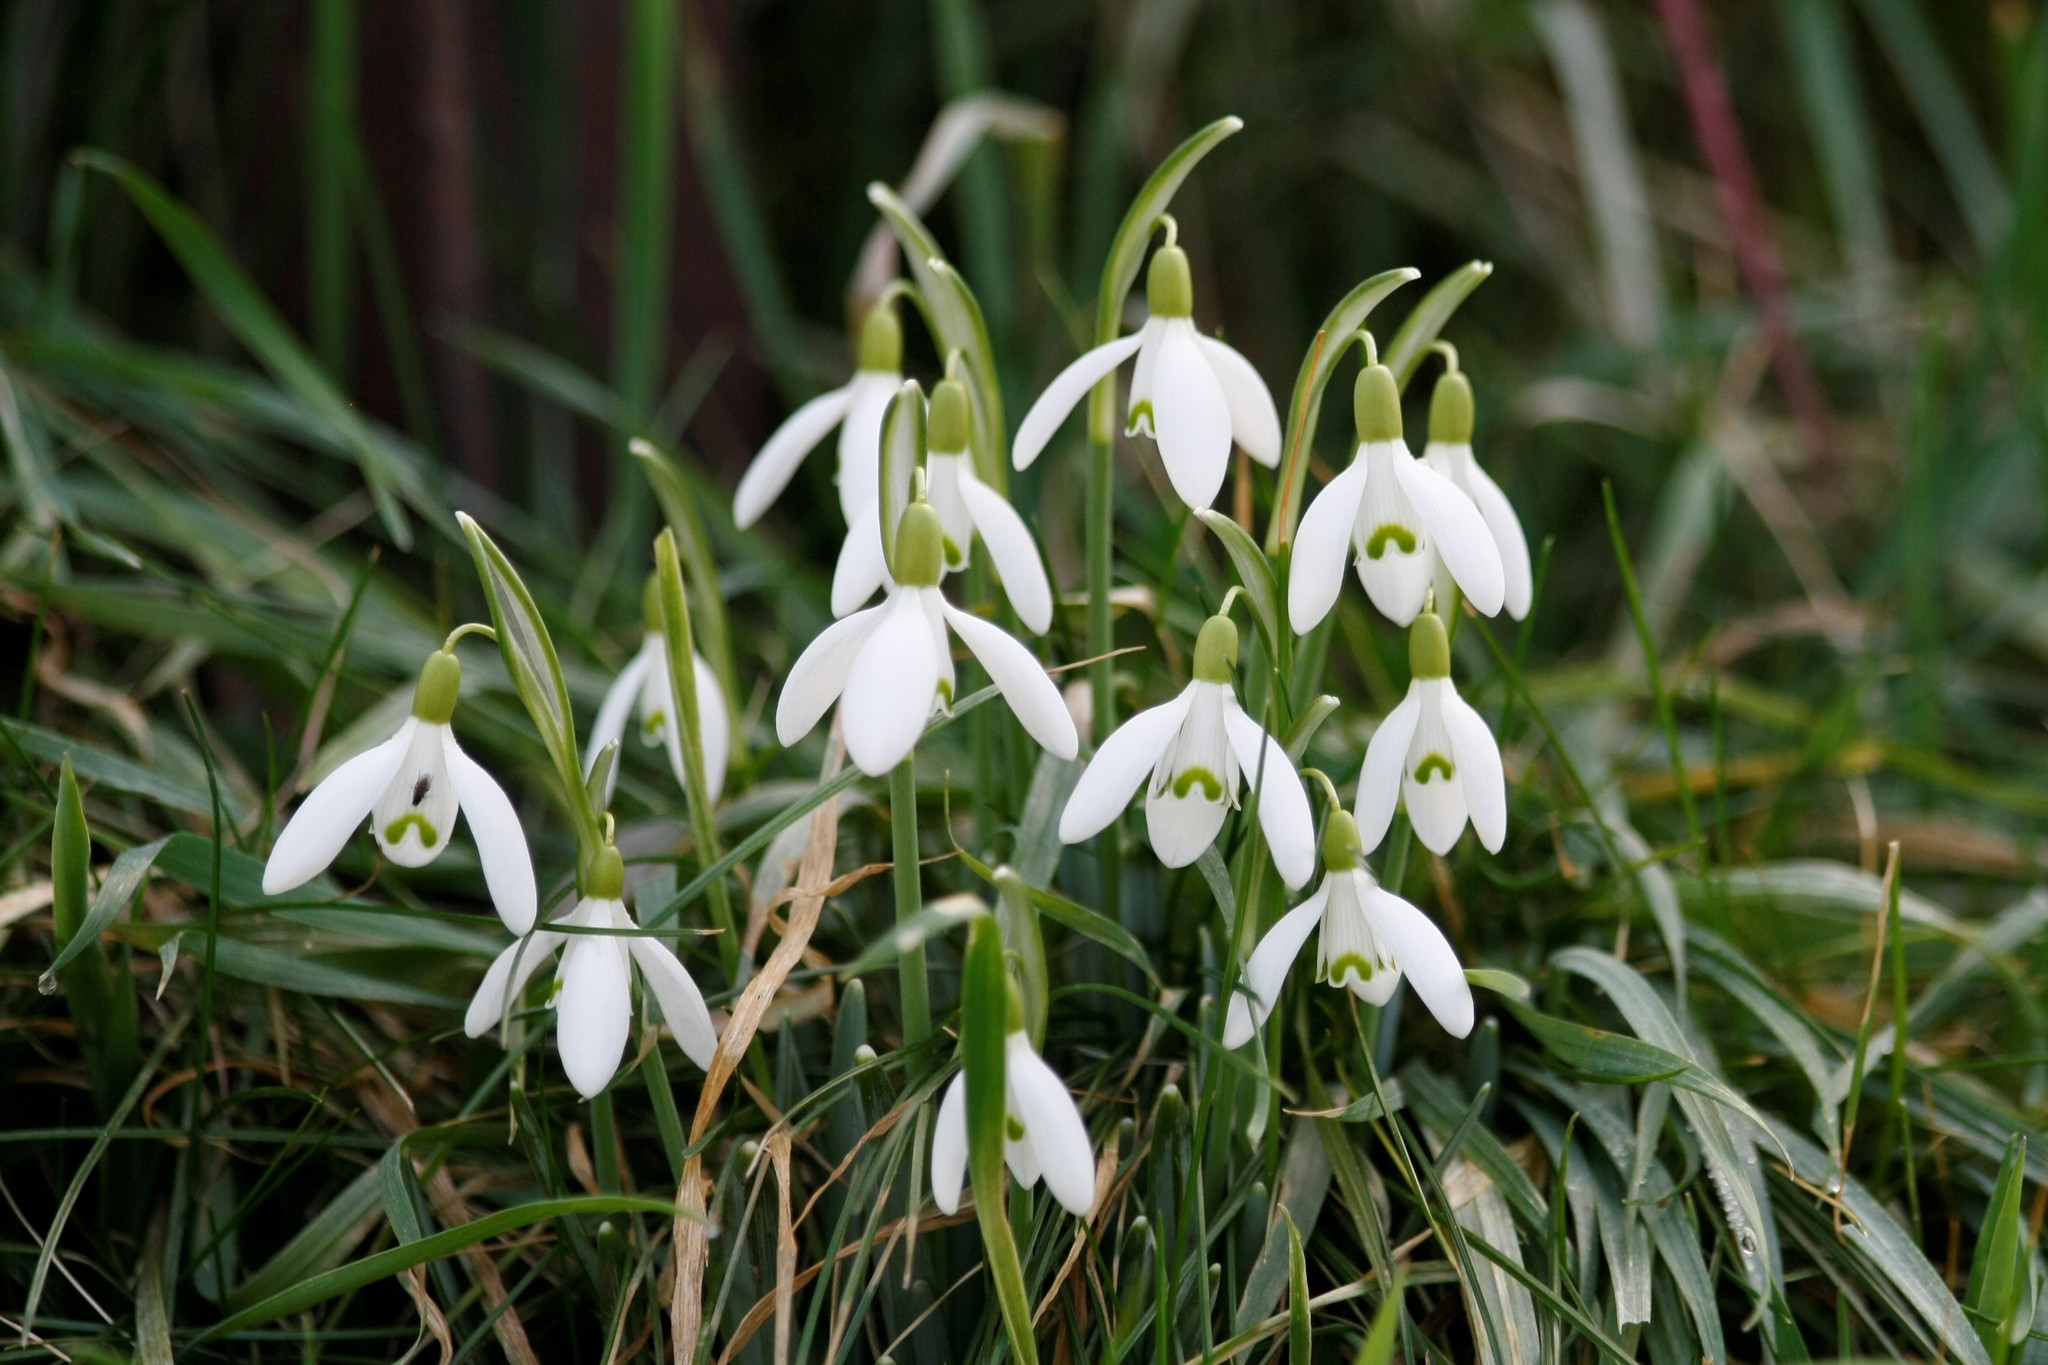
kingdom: Plantae
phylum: Tracheophyta
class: Liliopsida
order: Asparagales
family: Amaryllidaceae
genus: Galanthus
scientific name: Galanthus nivalis
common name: Snowdrop
